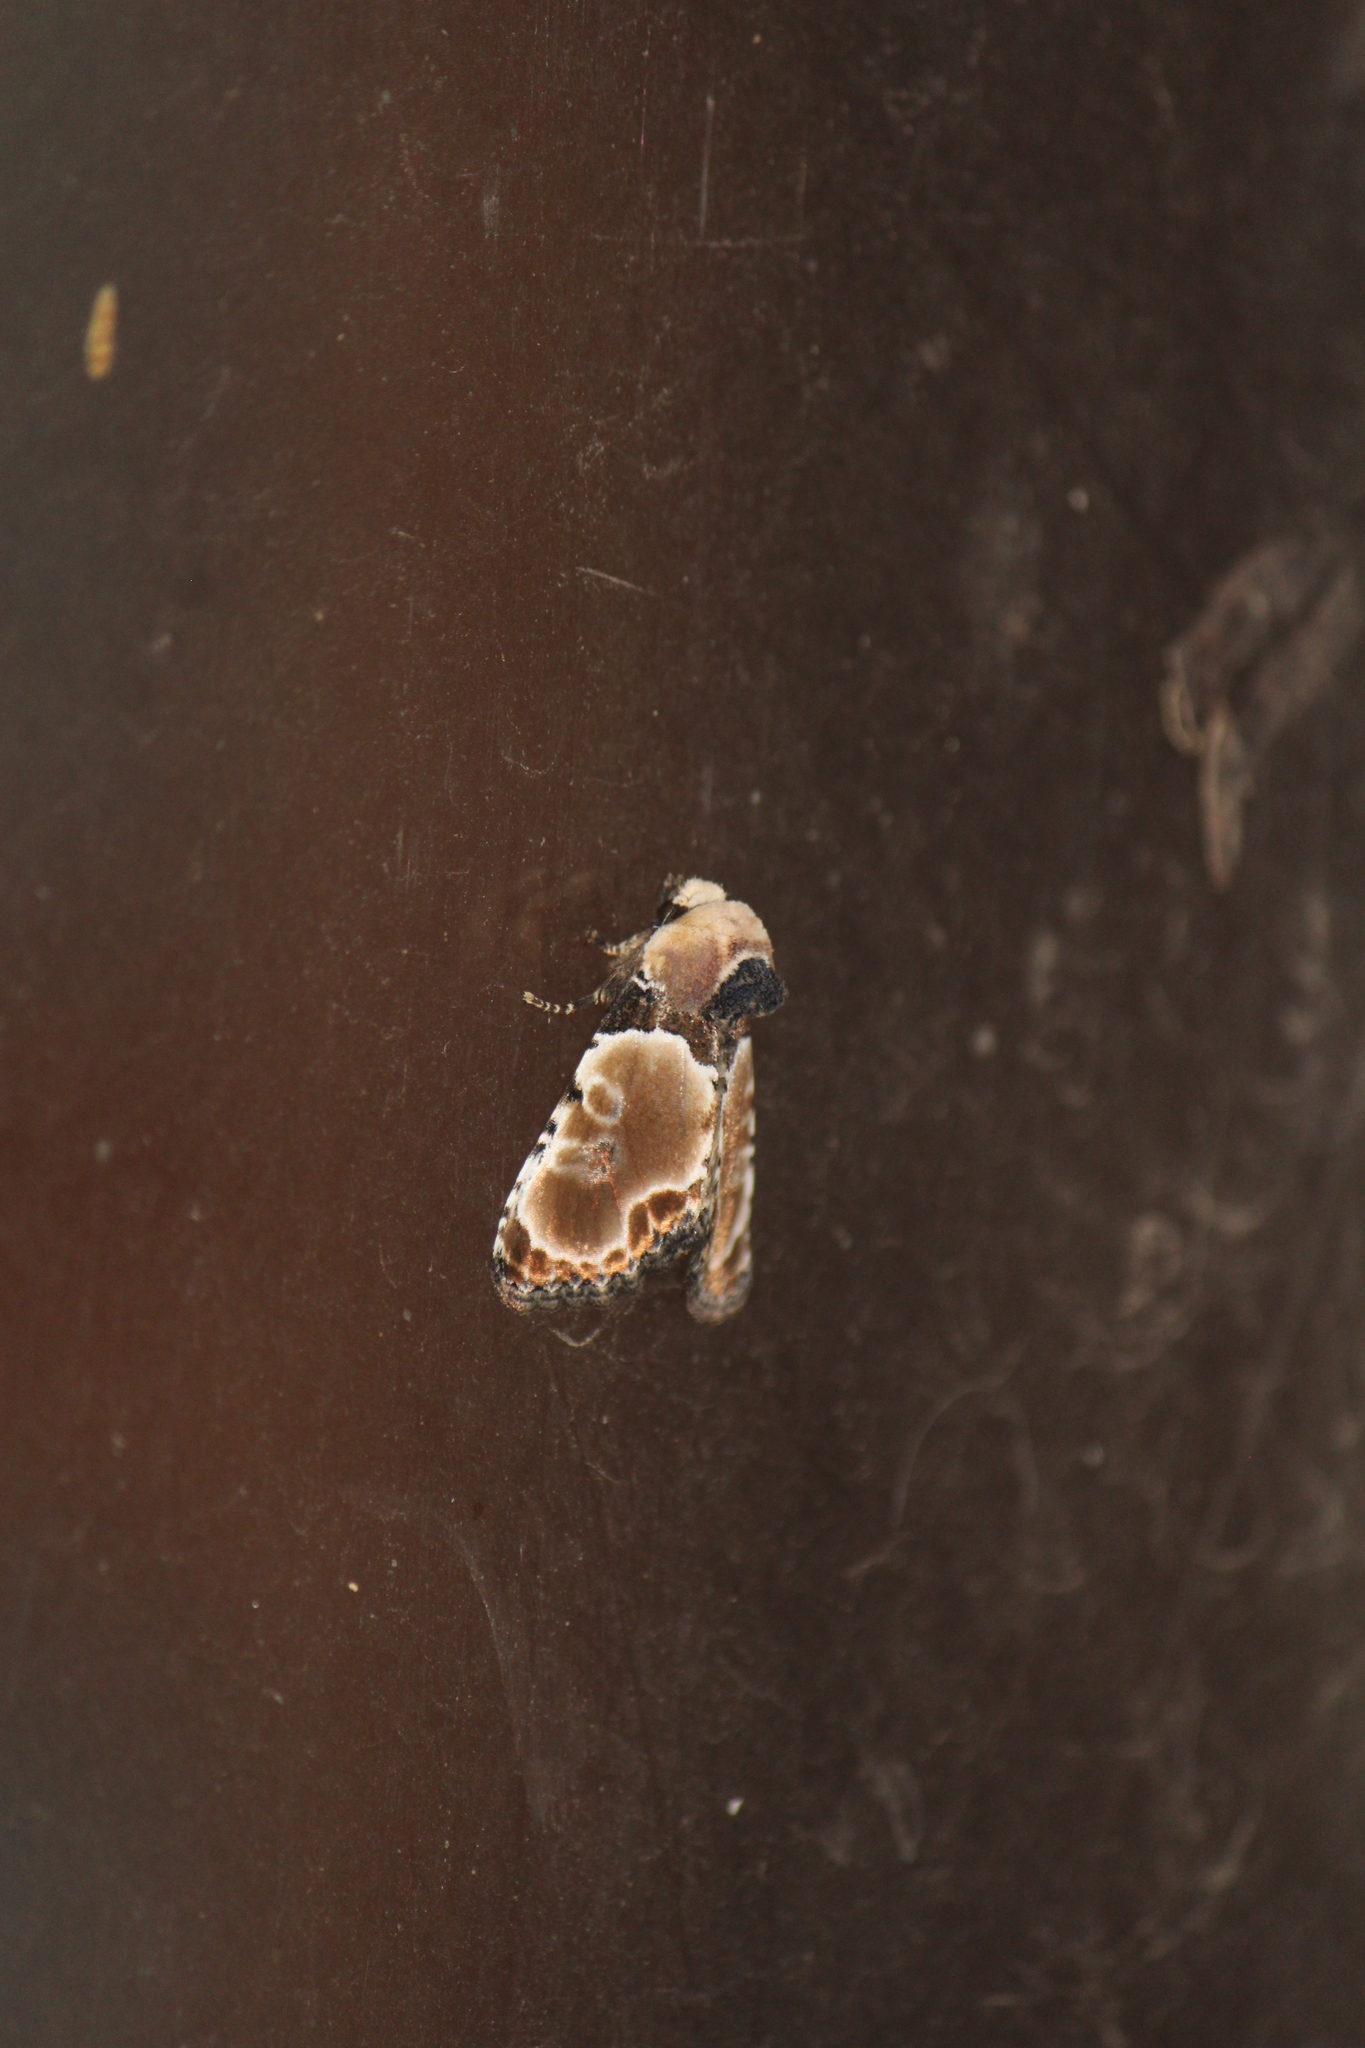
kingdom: Animalia
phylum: Arthropoda
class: Insecta
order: Lepidoptera
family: Noctuidae
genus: Thyatirodes
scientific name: Thyatirodes godalma
